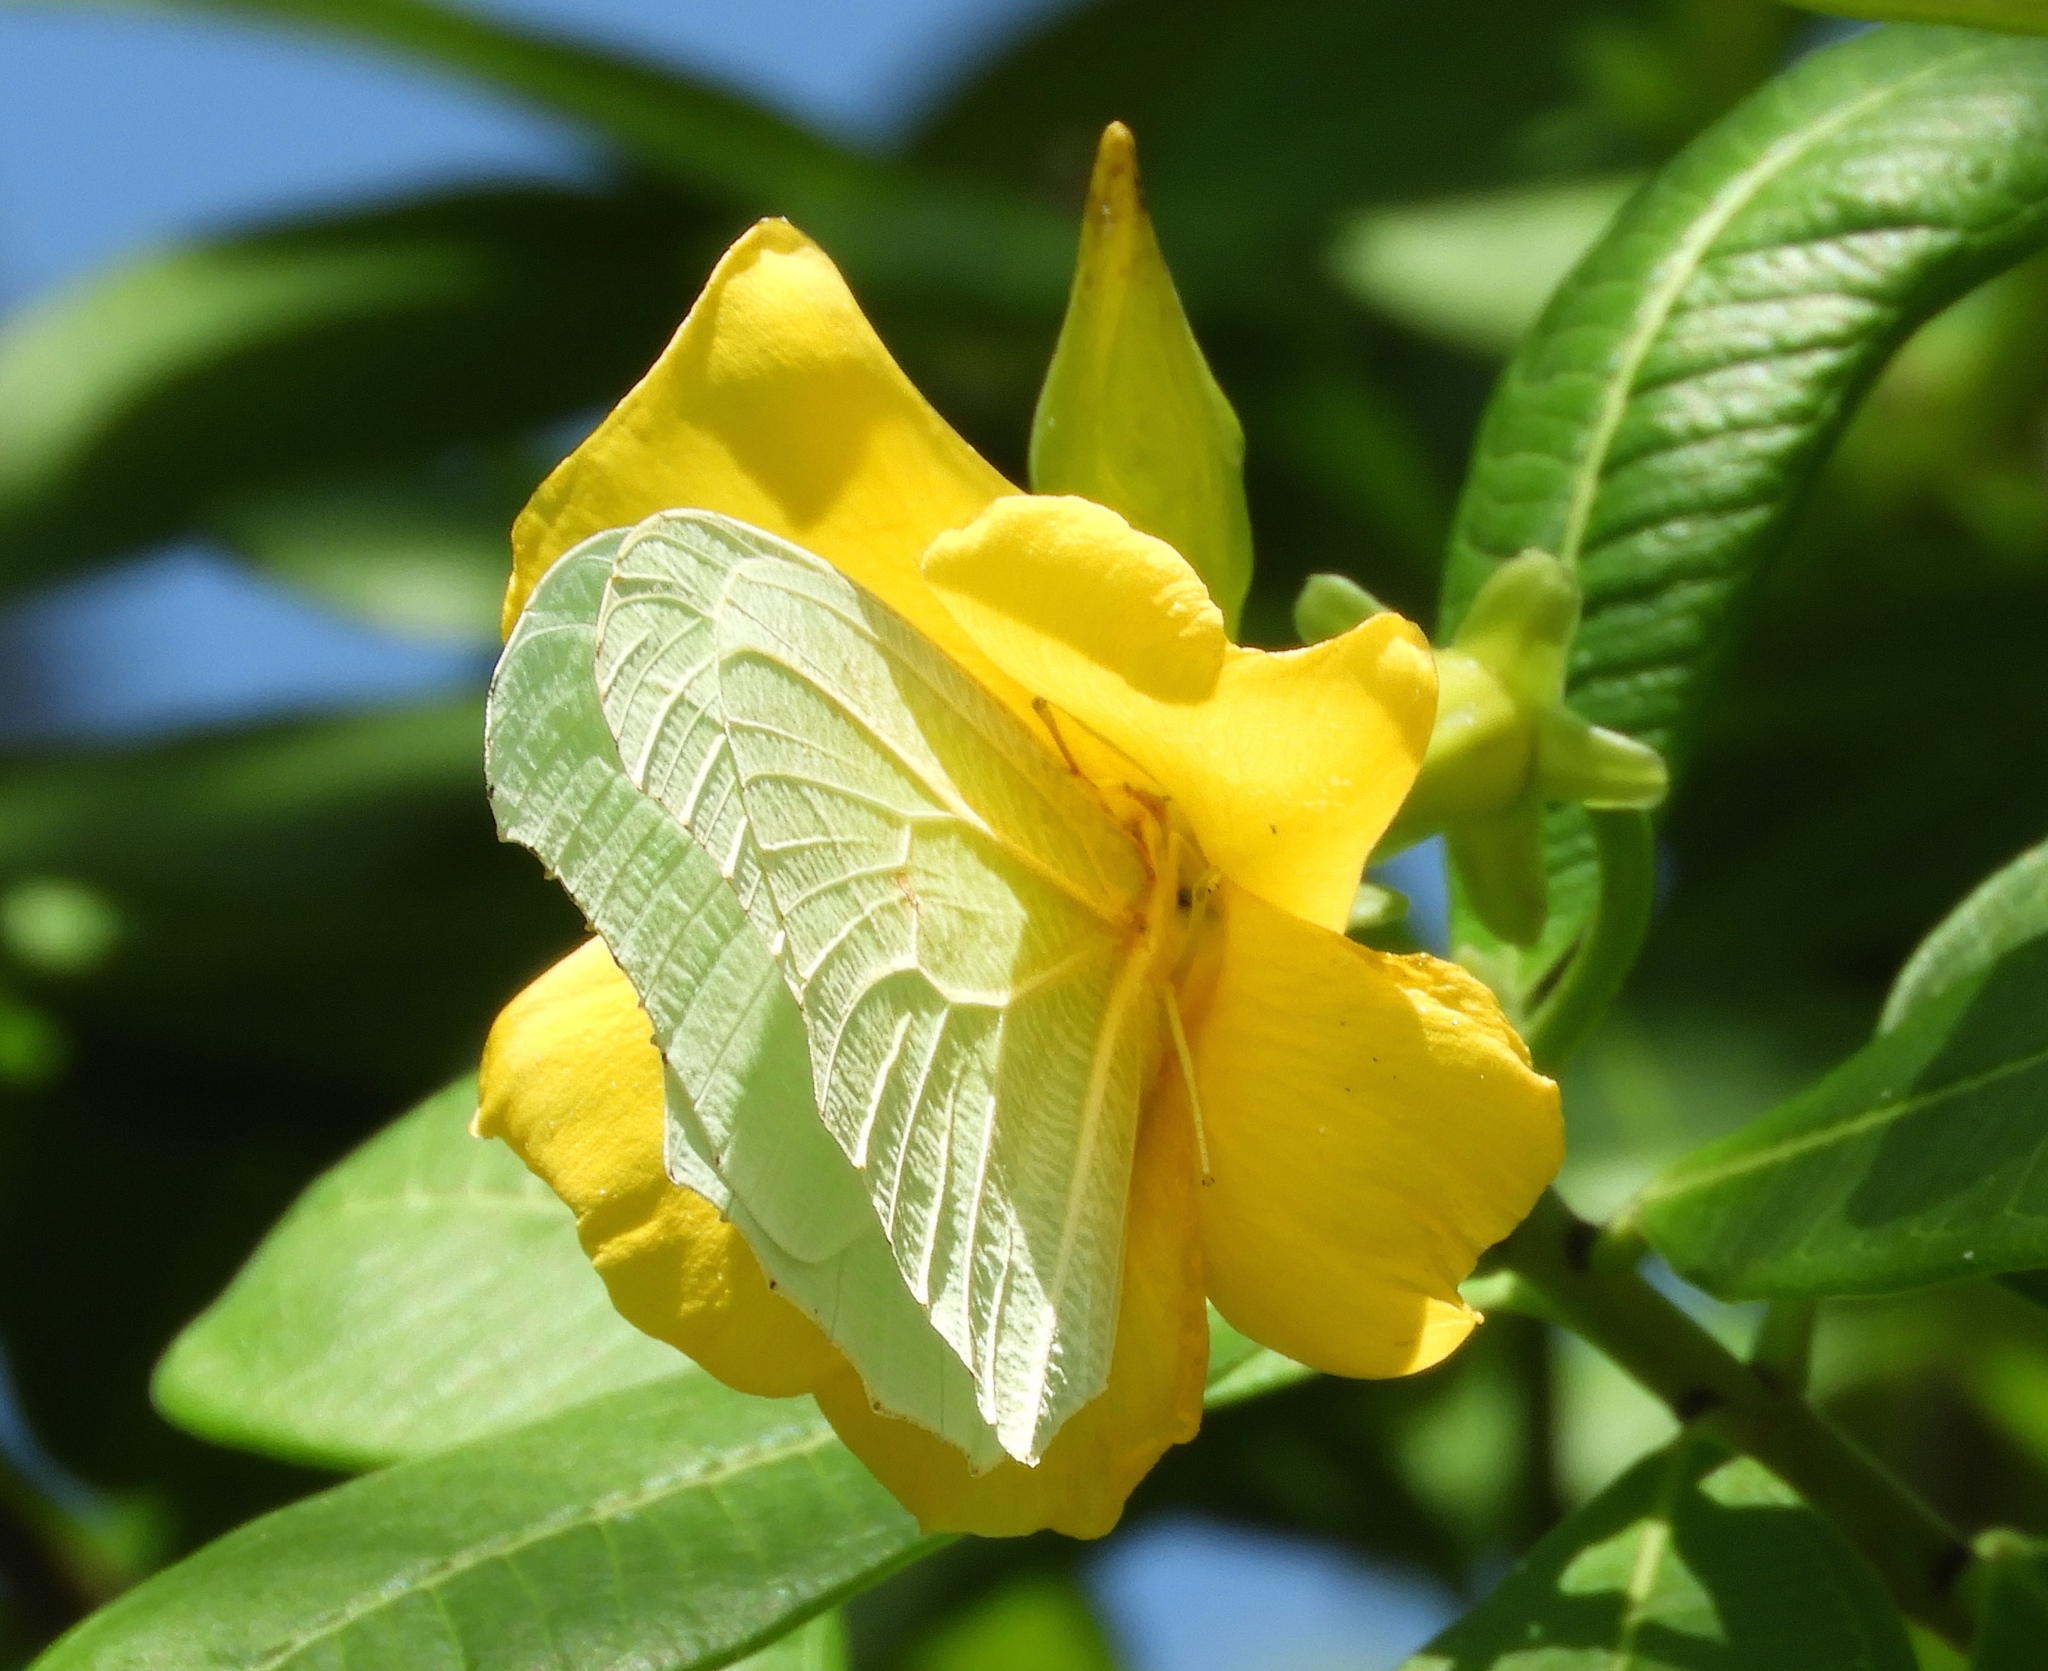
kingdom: Animalia
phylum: Arthropoda
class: Insecta
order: Lepidoptera
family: Pieridae
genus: Anteos
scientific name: Anteos clorinde
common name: White angled sulphur
